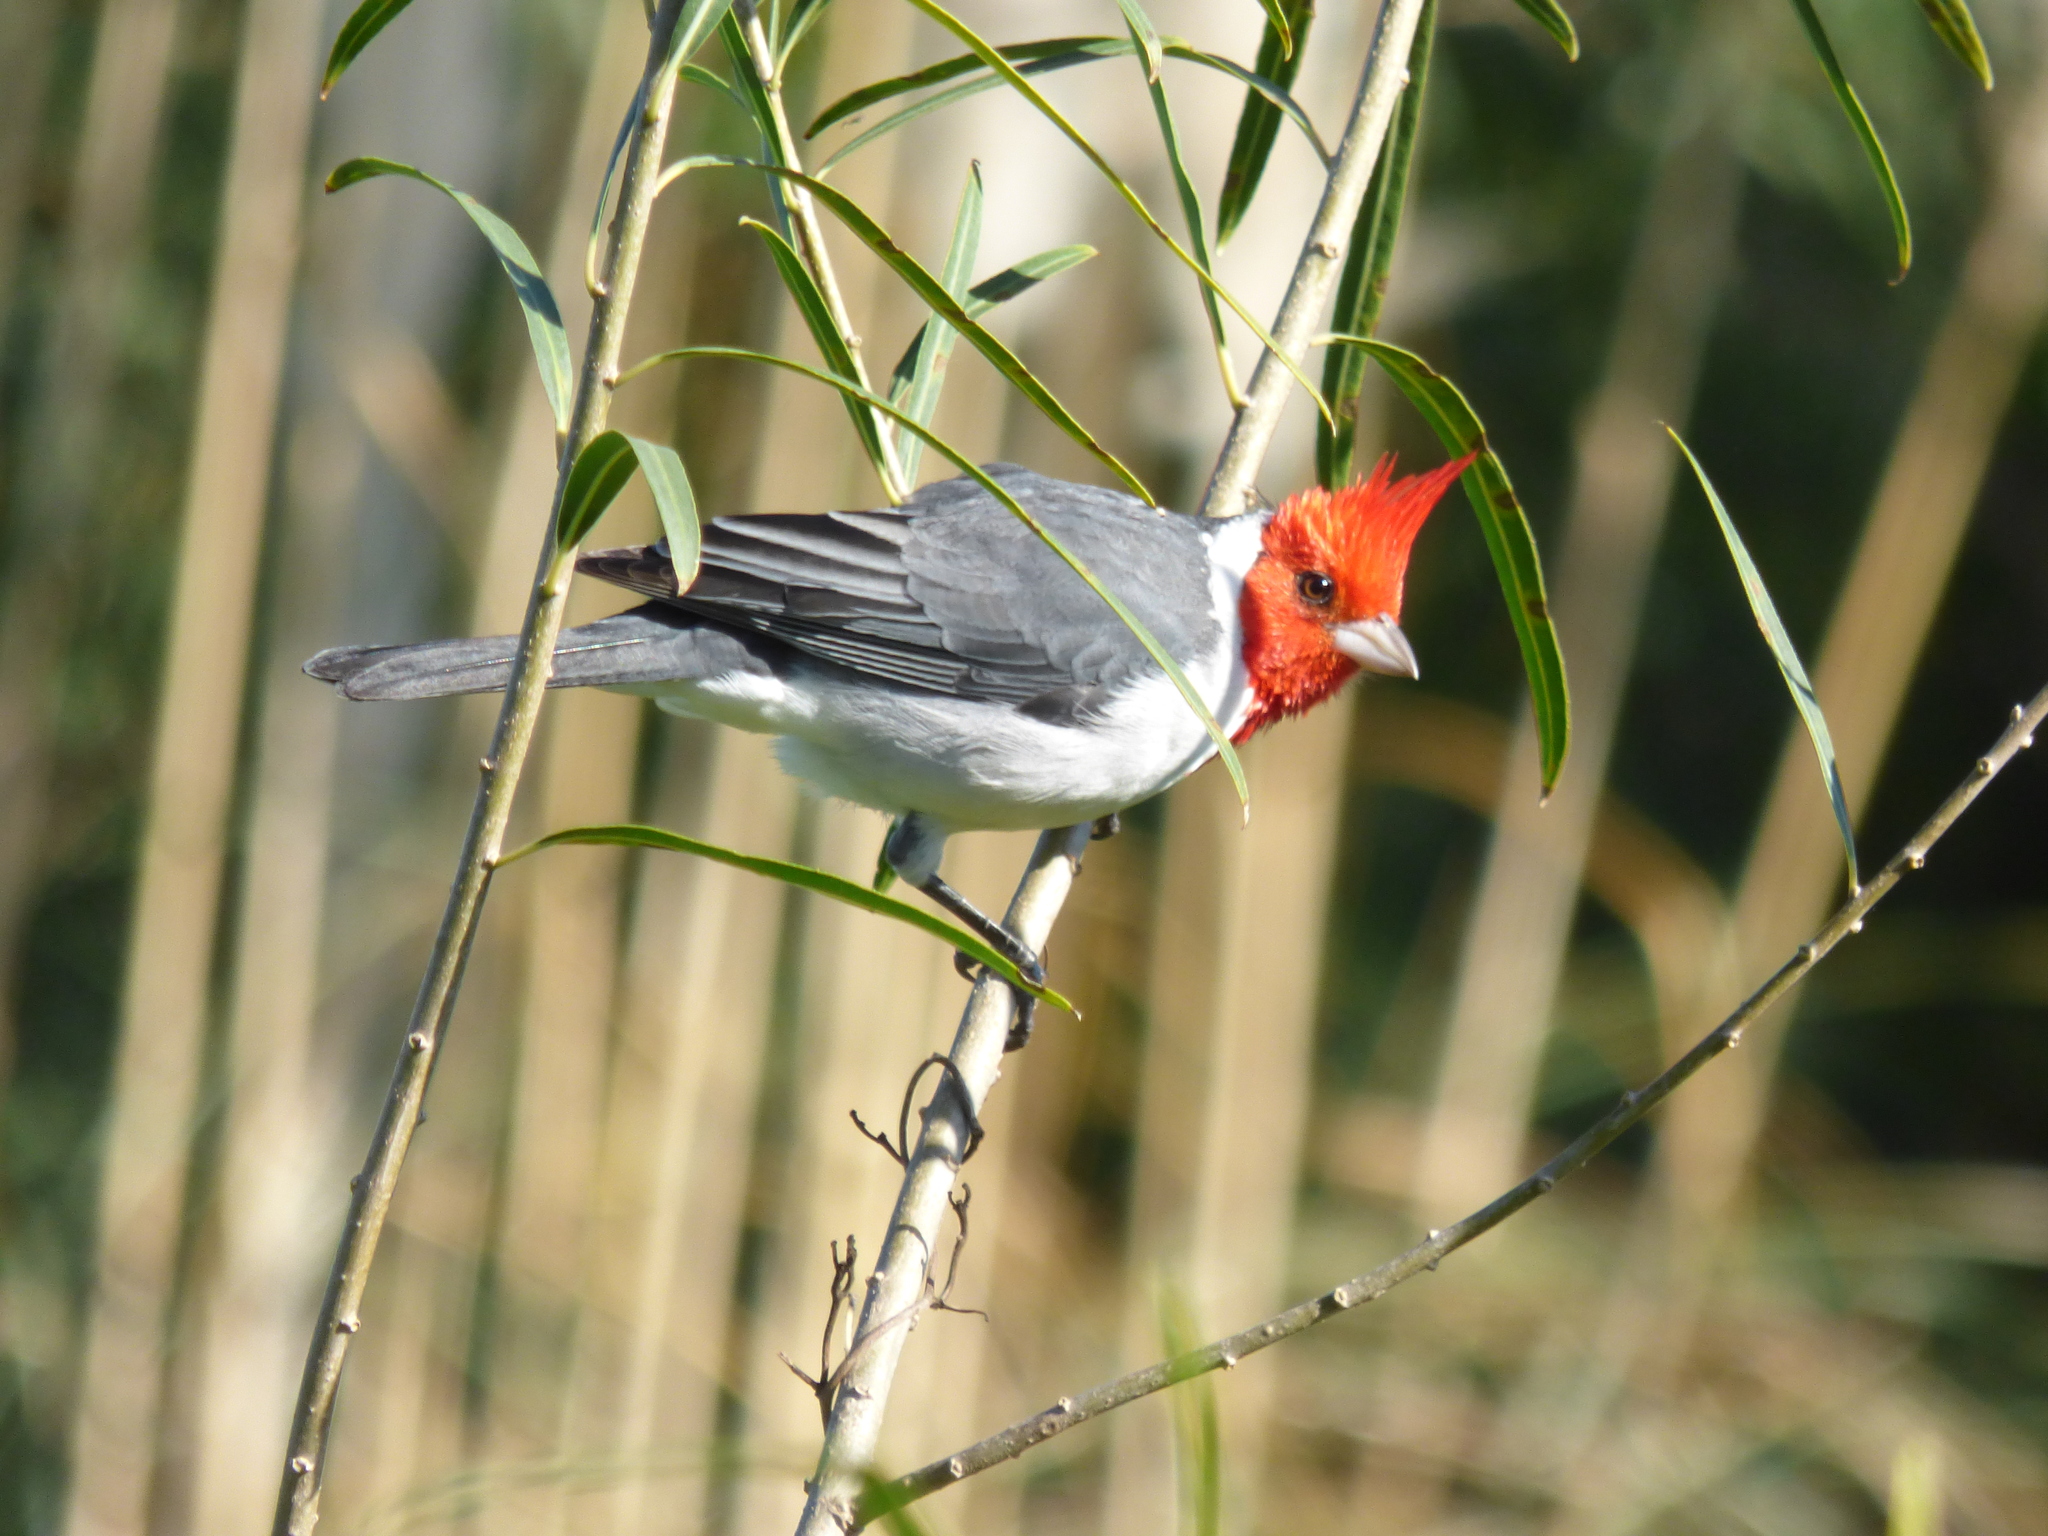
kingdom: Animalia
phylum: Chordata
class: Aves
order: Passeriformes
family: Thraupidae
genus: Paroaria
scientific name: Paroaria coronata
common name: Red-crested cardinal
